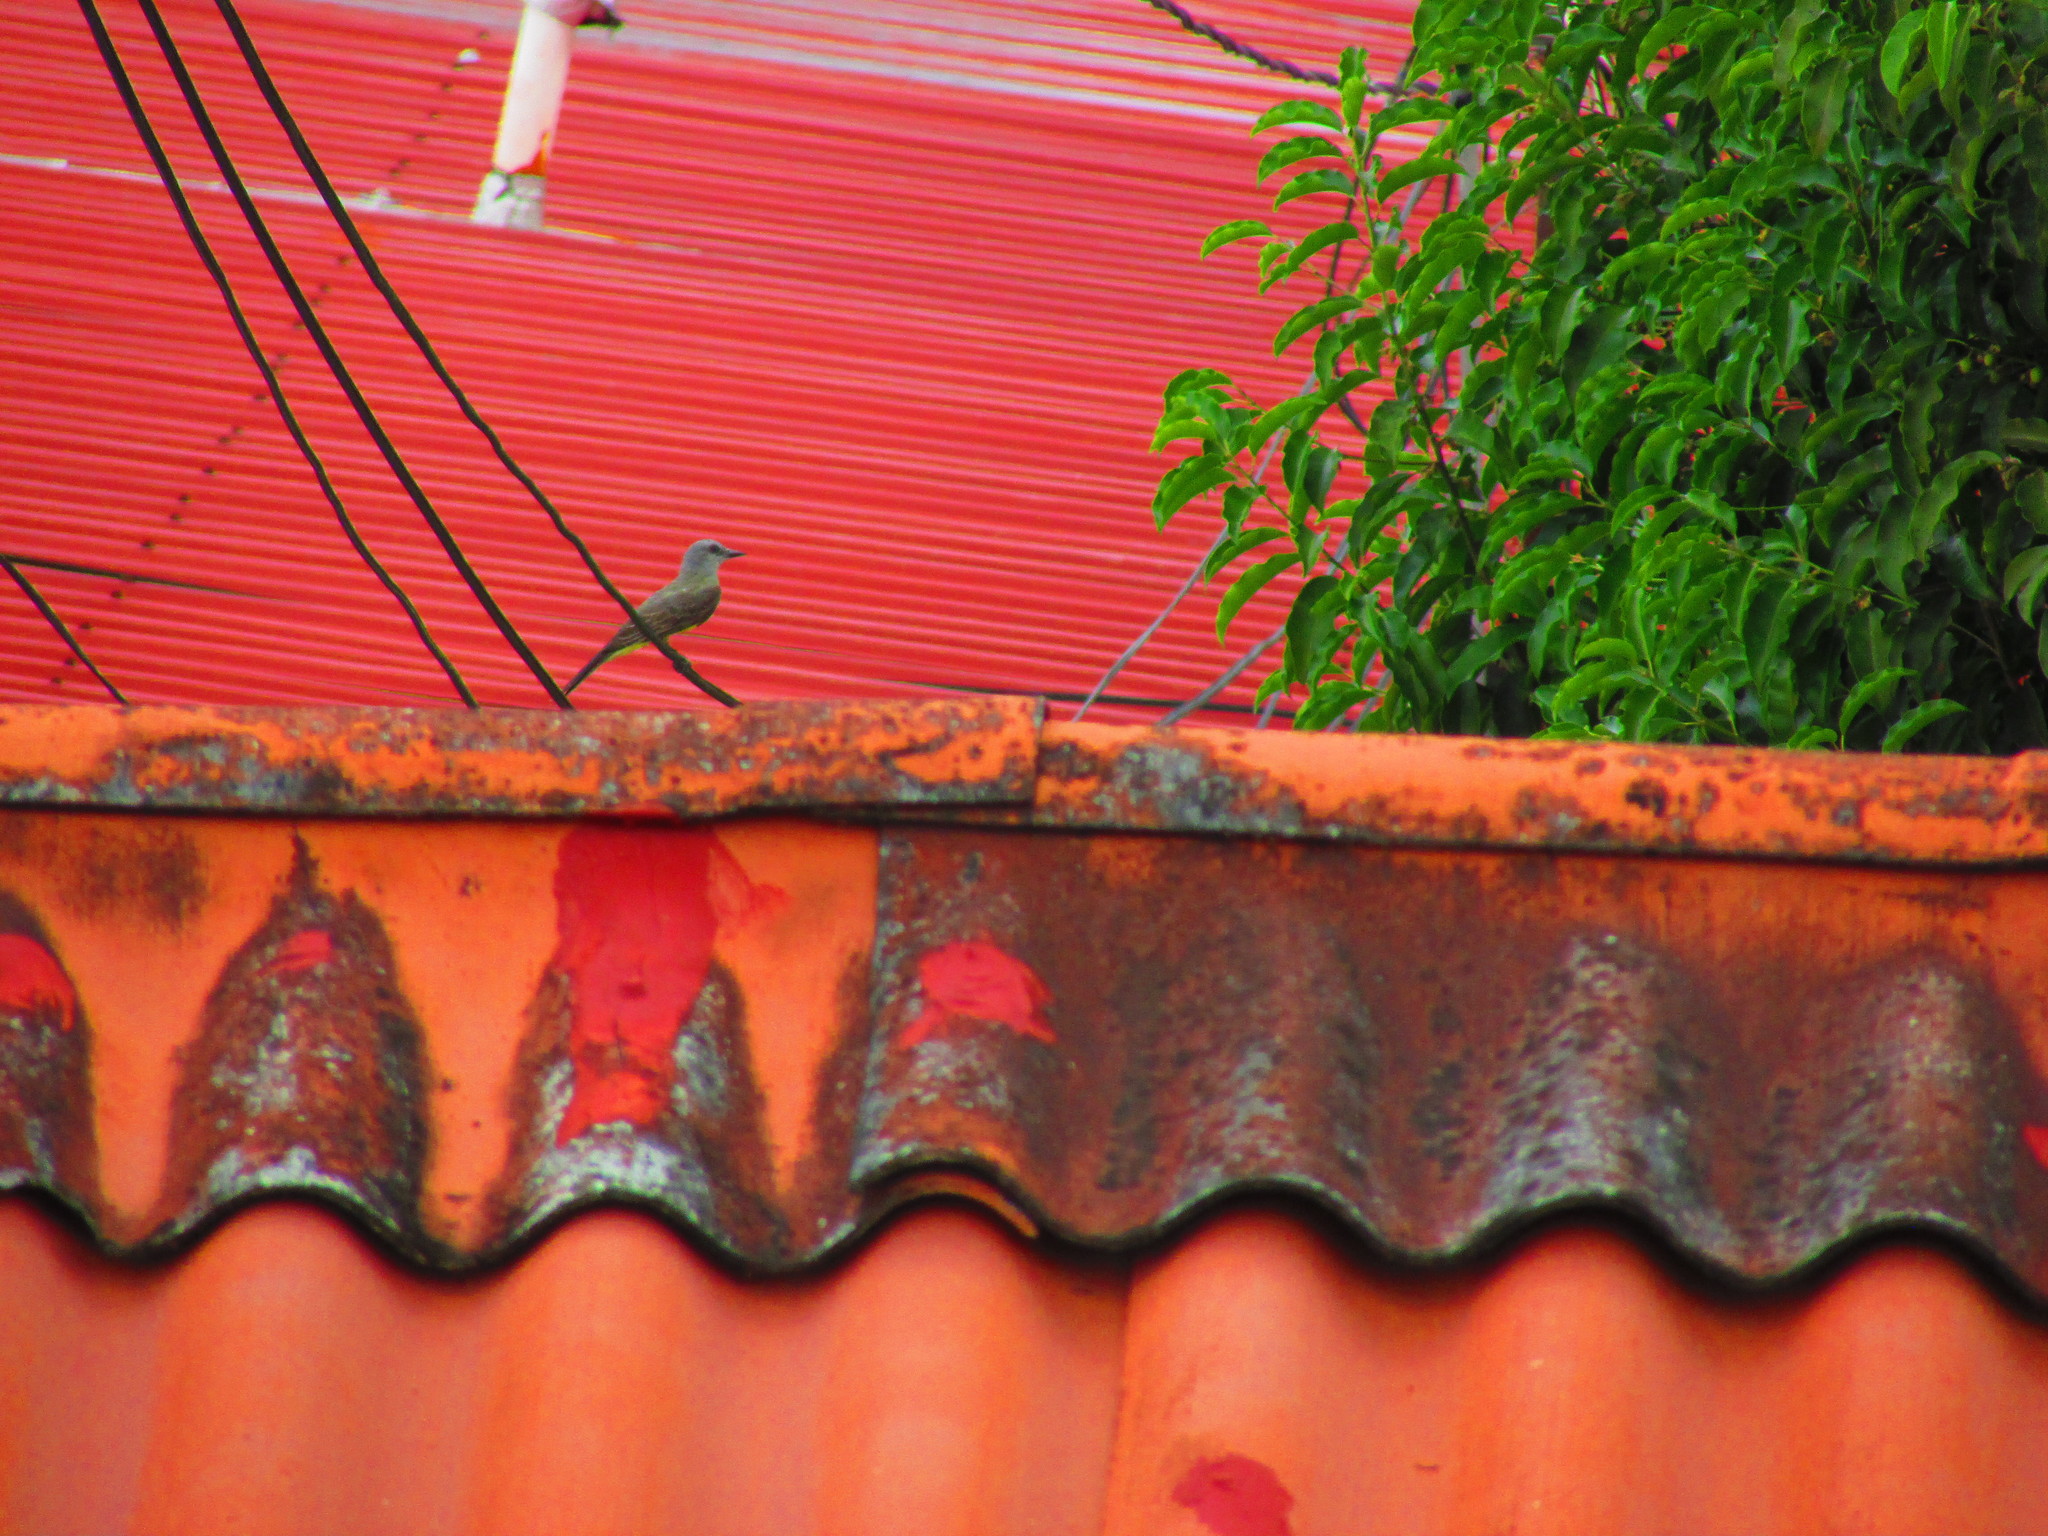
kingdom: Animalia
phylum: Chordata
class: Aves
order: Passeriformes
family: Tyrannidae
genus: Tyrannus
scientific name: Tyrannus melancholicus
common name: Tropical kingbird
